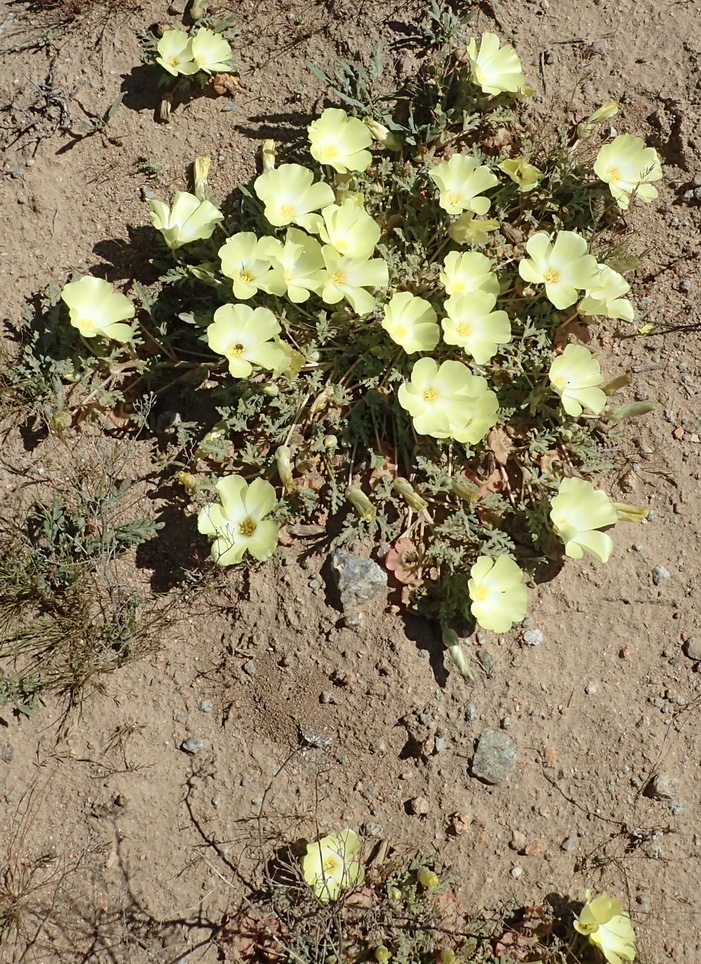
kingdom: Plantae
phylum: Tracheophyta
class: Magnoliopsida
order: Malvales
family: Neuradaceae
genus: Grielum
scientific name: Grielum humifusum
